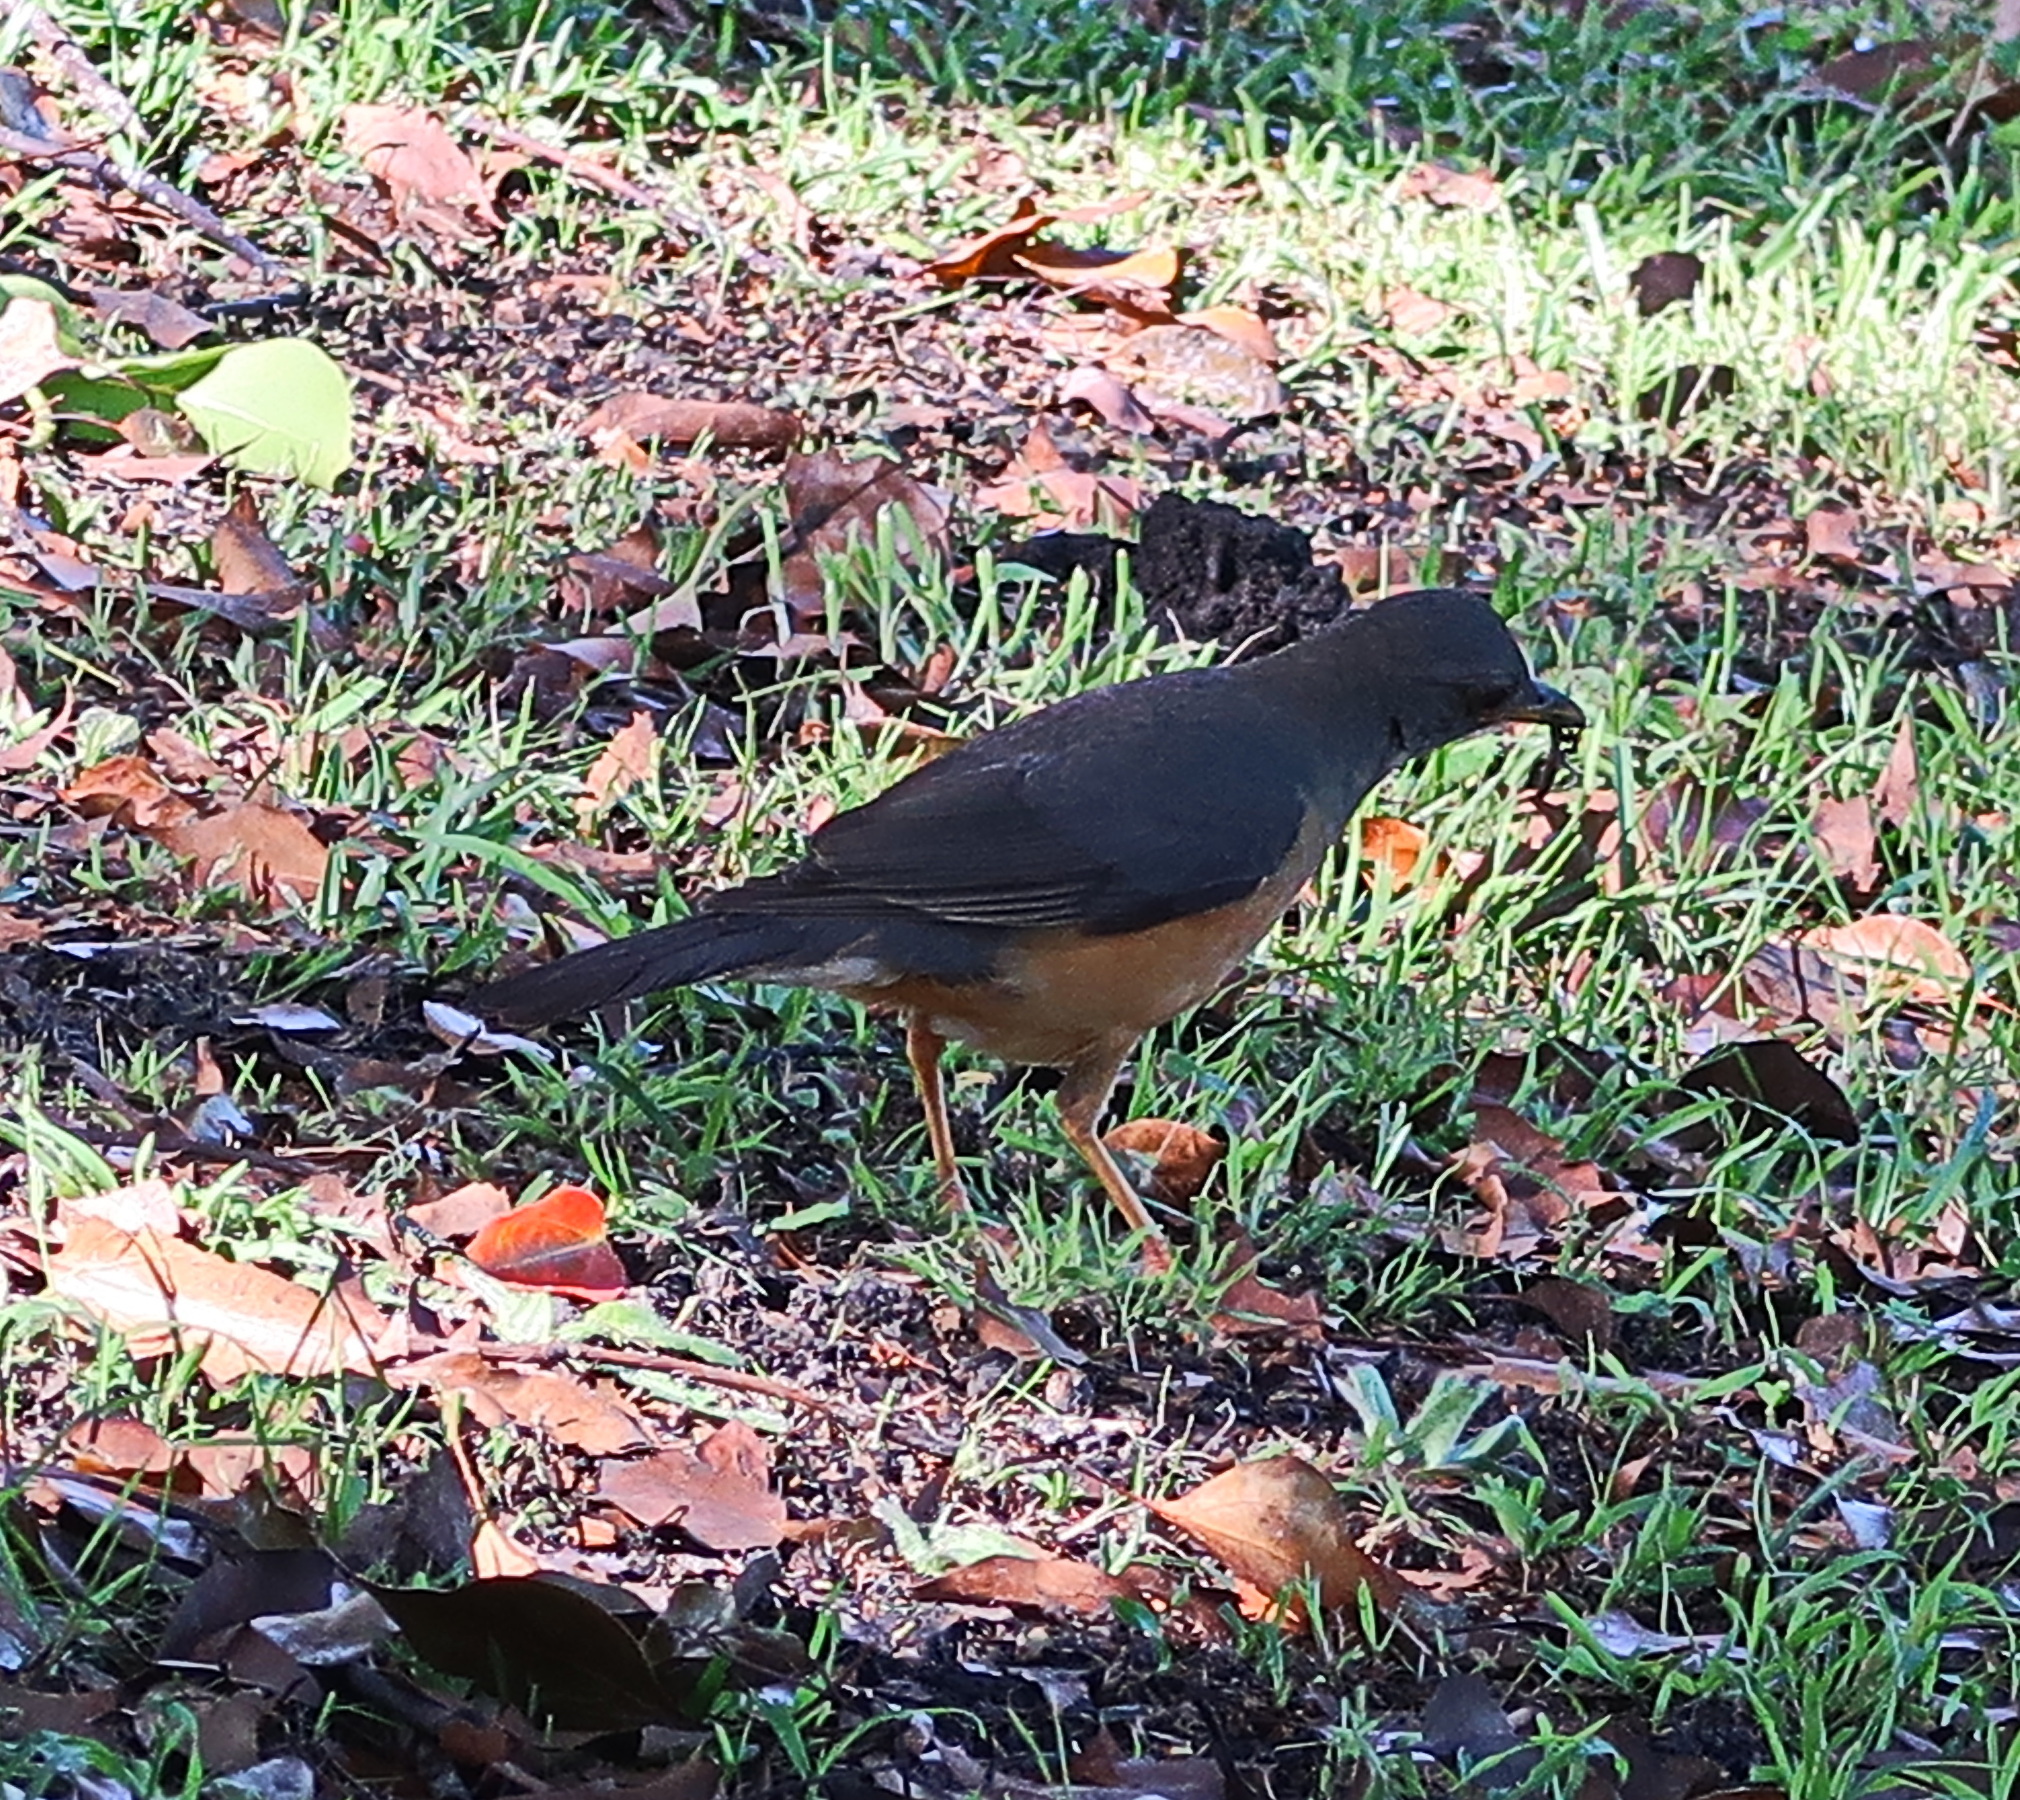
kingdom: Animalia
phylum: Chordata
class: Aves
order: Passeriformes
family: Turdidae
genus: Turdus
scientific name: Turdus olivaceus
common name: Olive thrush
